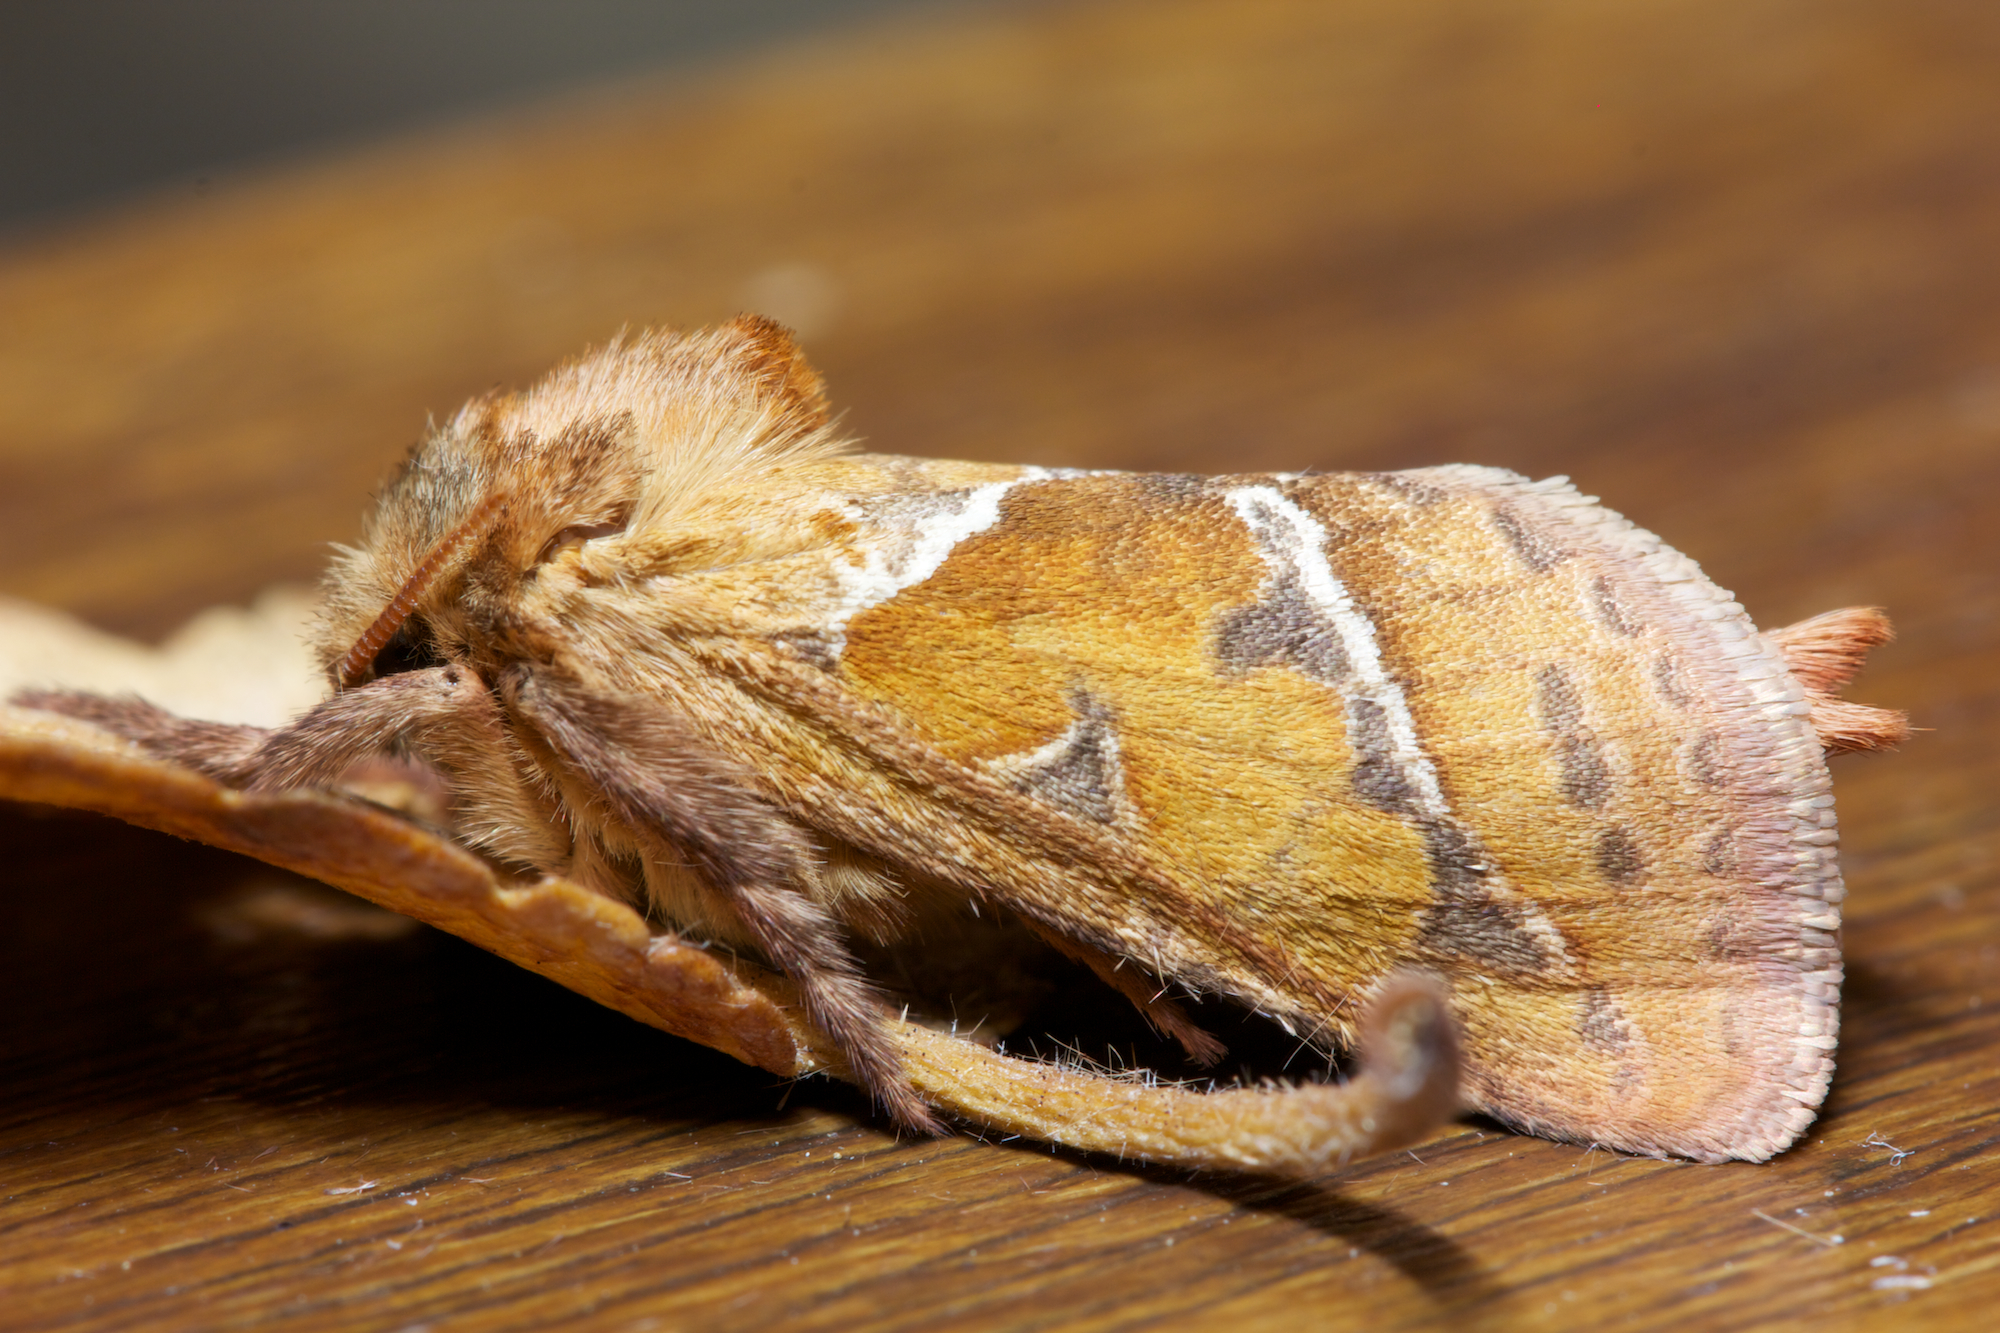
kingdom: Animalia
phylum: Arthropoda
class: Insecta
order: Lepidoptera
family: Hepialidae
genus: Triodia
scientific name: Triodia sylvina
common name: Orange swift
